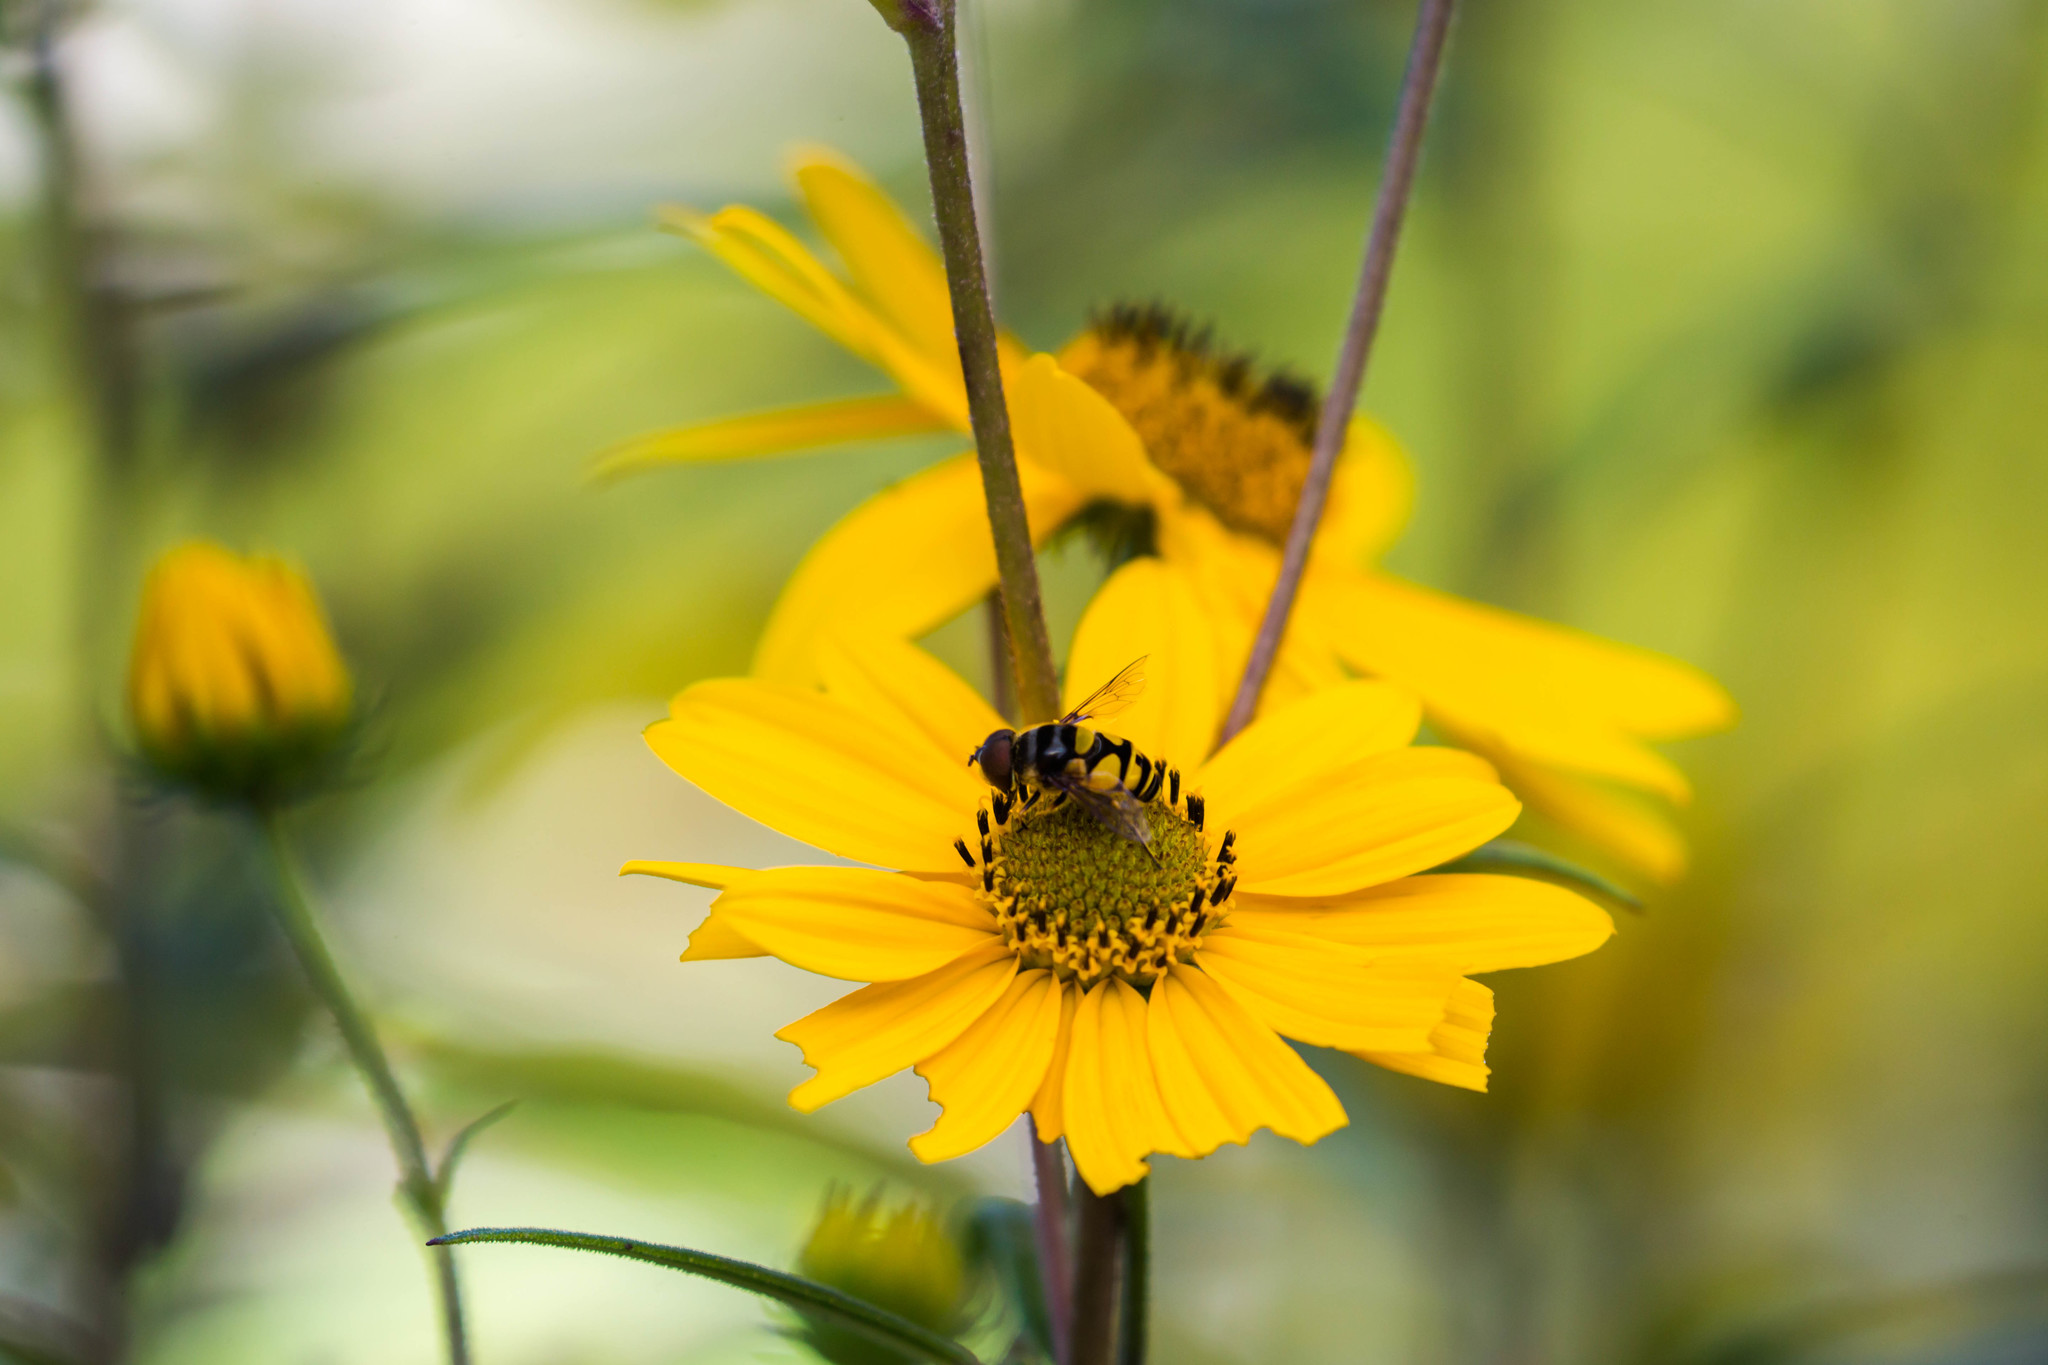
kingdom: Animalia
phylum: Arthropoda
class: Insecta
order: Diptera
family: Syrphidae
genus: Eristalis
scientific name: Eristalis transversa
